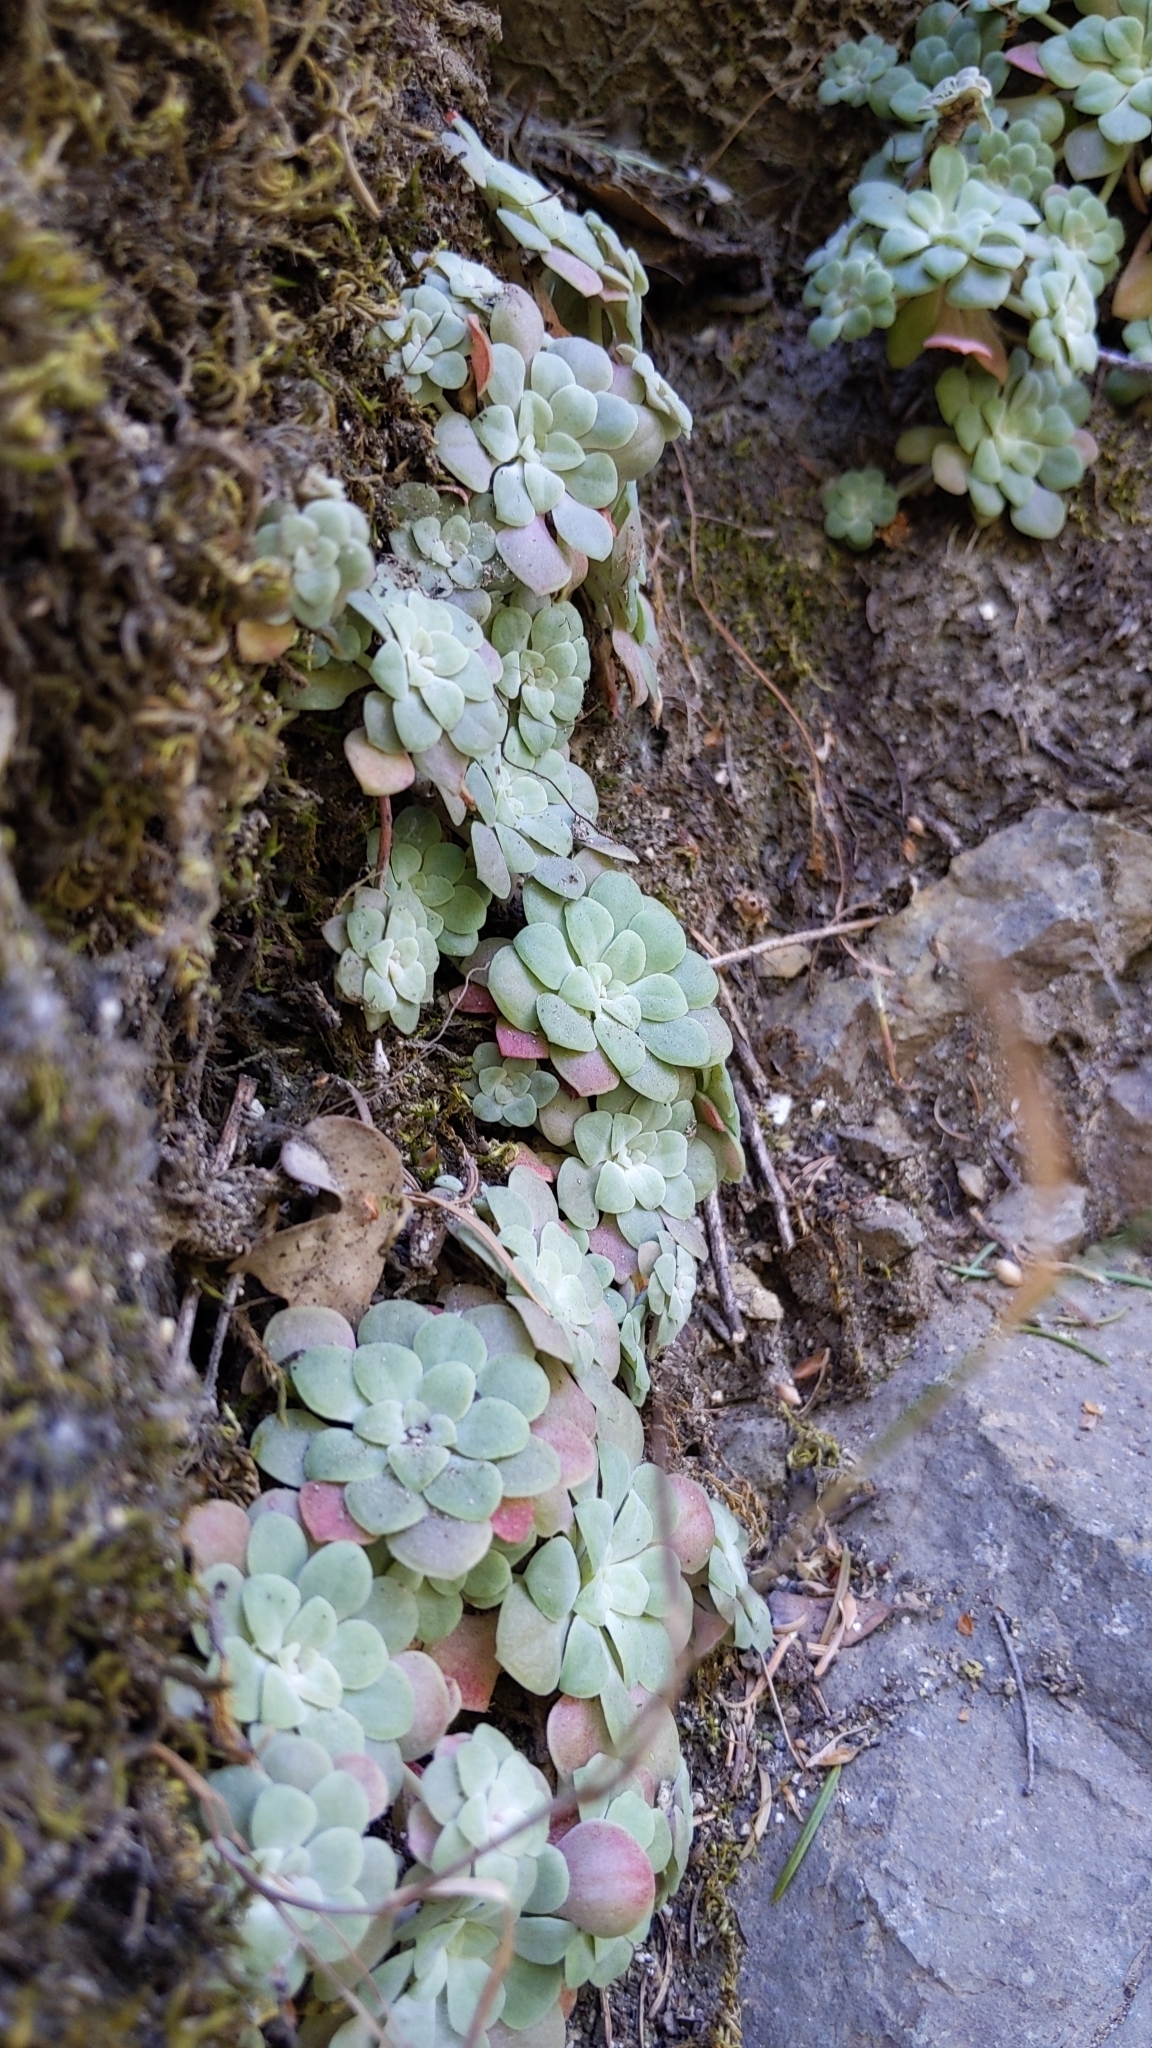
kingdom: Plantae
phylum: Tracheophyta
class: Magnoliopsida
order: Saxifragales
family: Crassulaceae
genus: Sedum
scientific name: Sedum spathulifolium
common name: Colorado stonecrop
